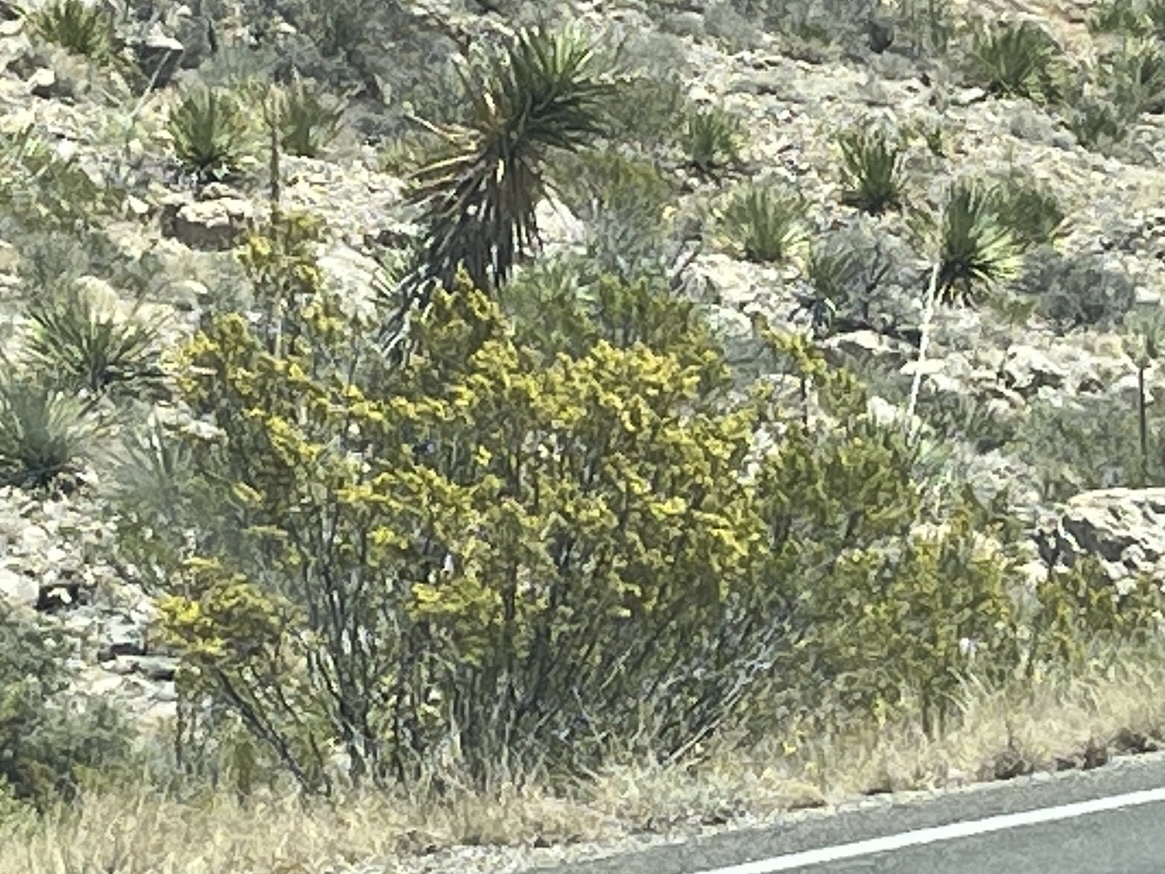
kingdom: Plantae
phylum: Tracheophyta
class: Magnoliopsida
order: Zygophyllales
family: Zygophyllaceae
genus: Larrea
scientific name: Larrea tridentata
